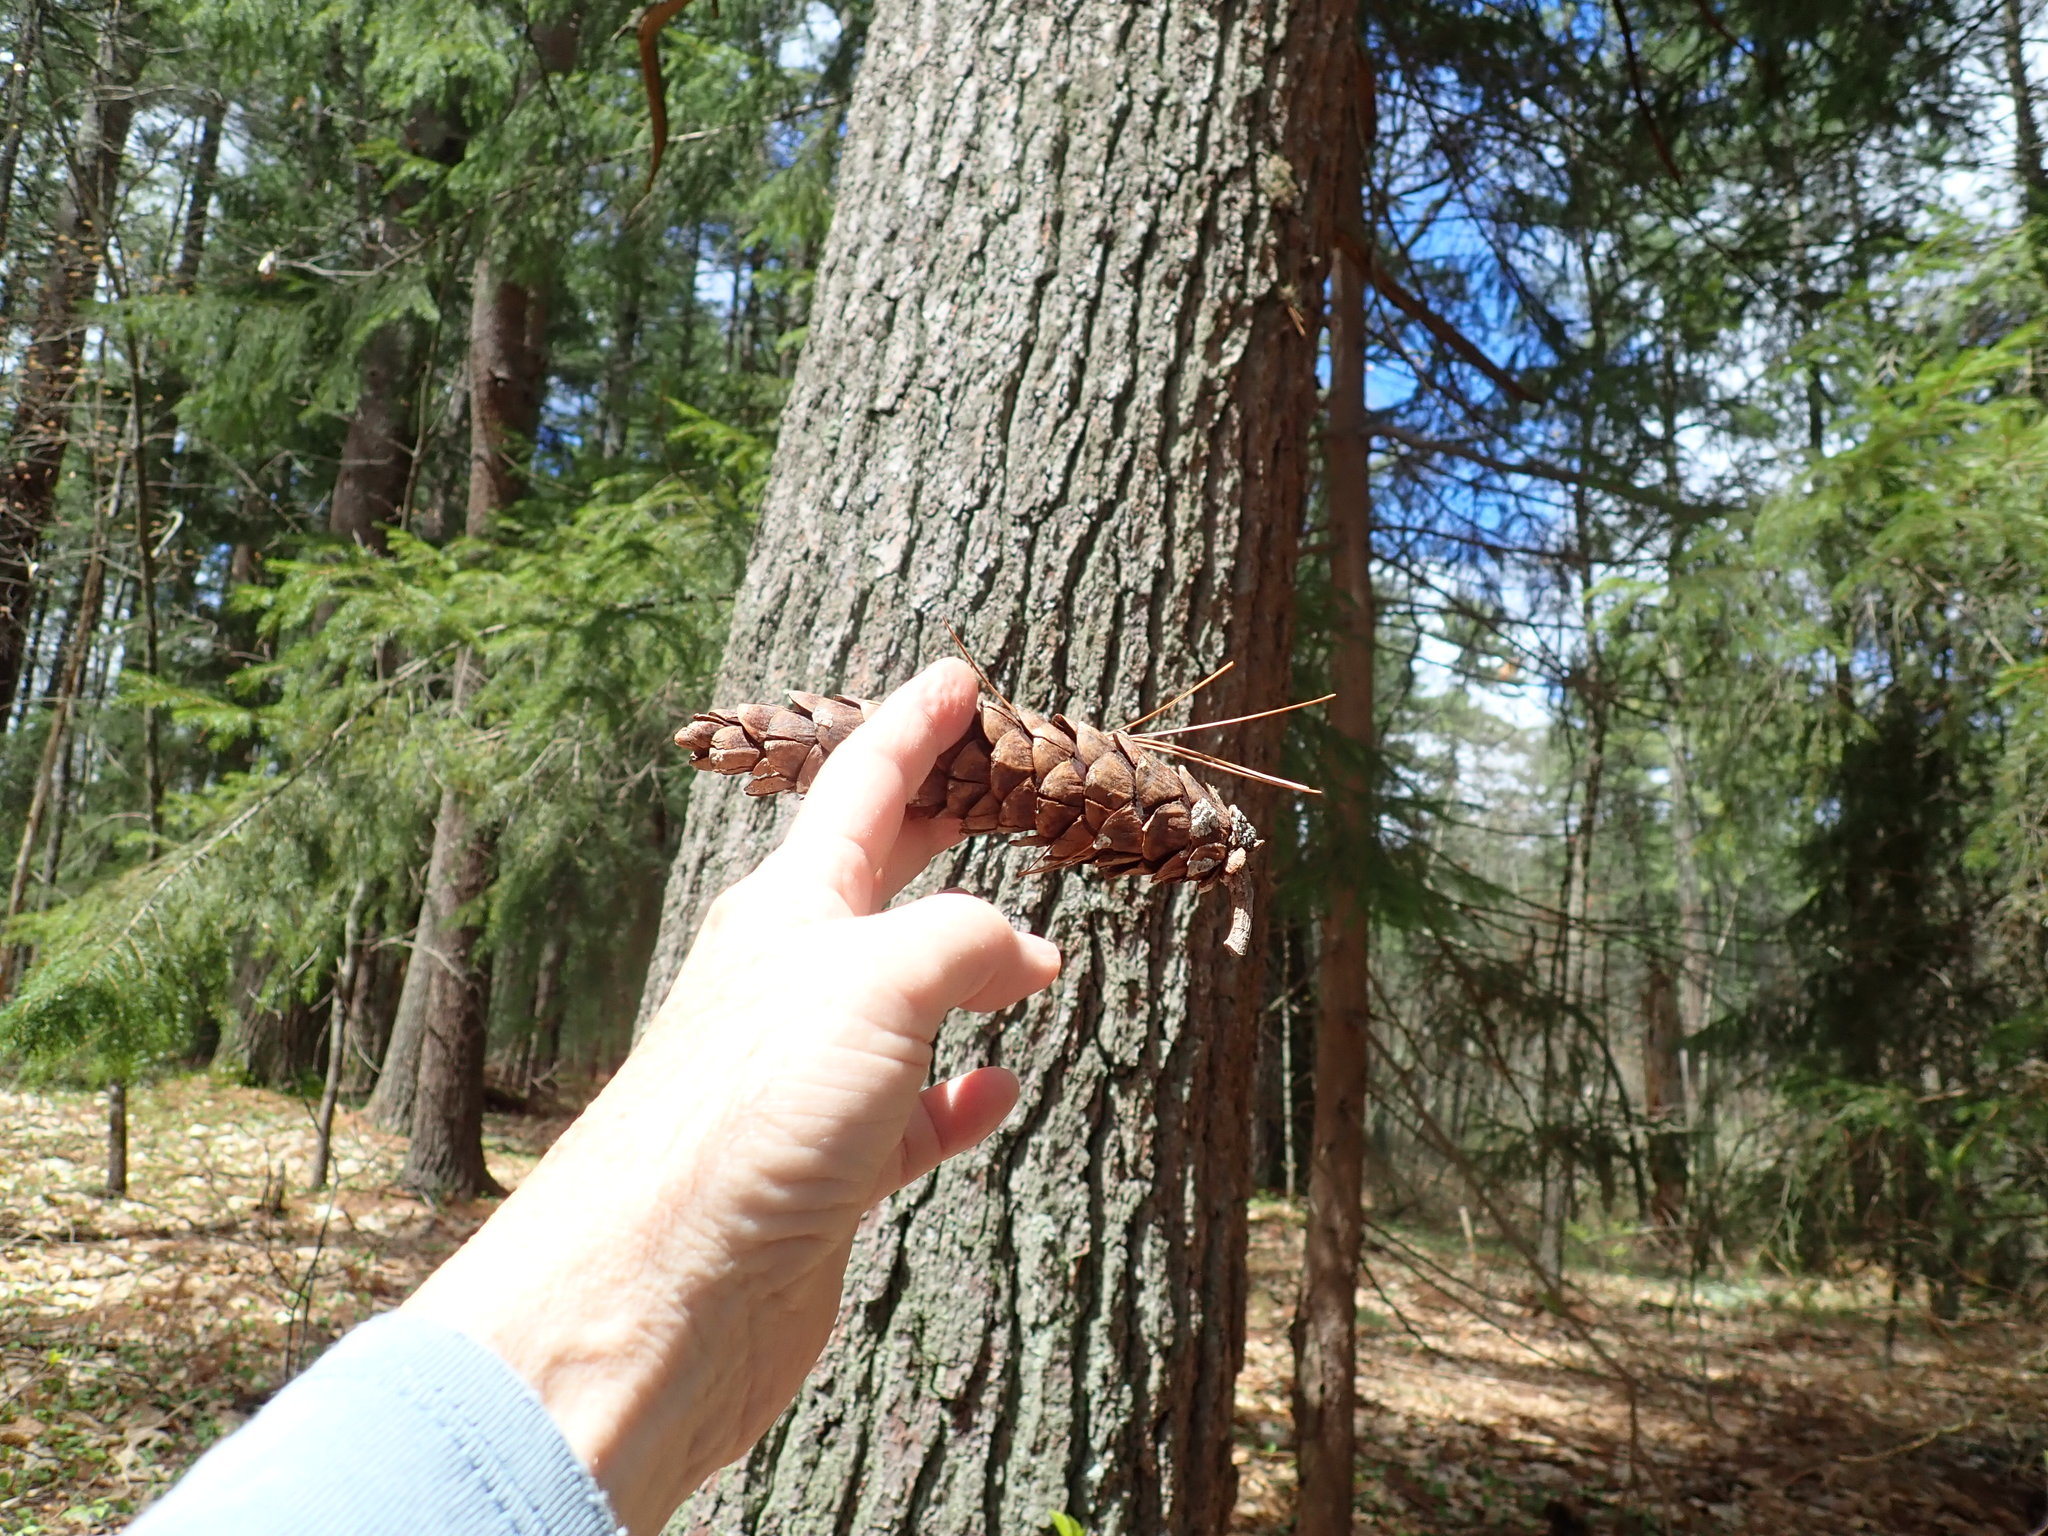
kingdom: Plantae
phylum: Tracheophyta
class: Pinopsida
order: Pinales
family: Pinaceae
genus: Pinus
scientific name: Pinus strobus
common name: Weymouth pine
